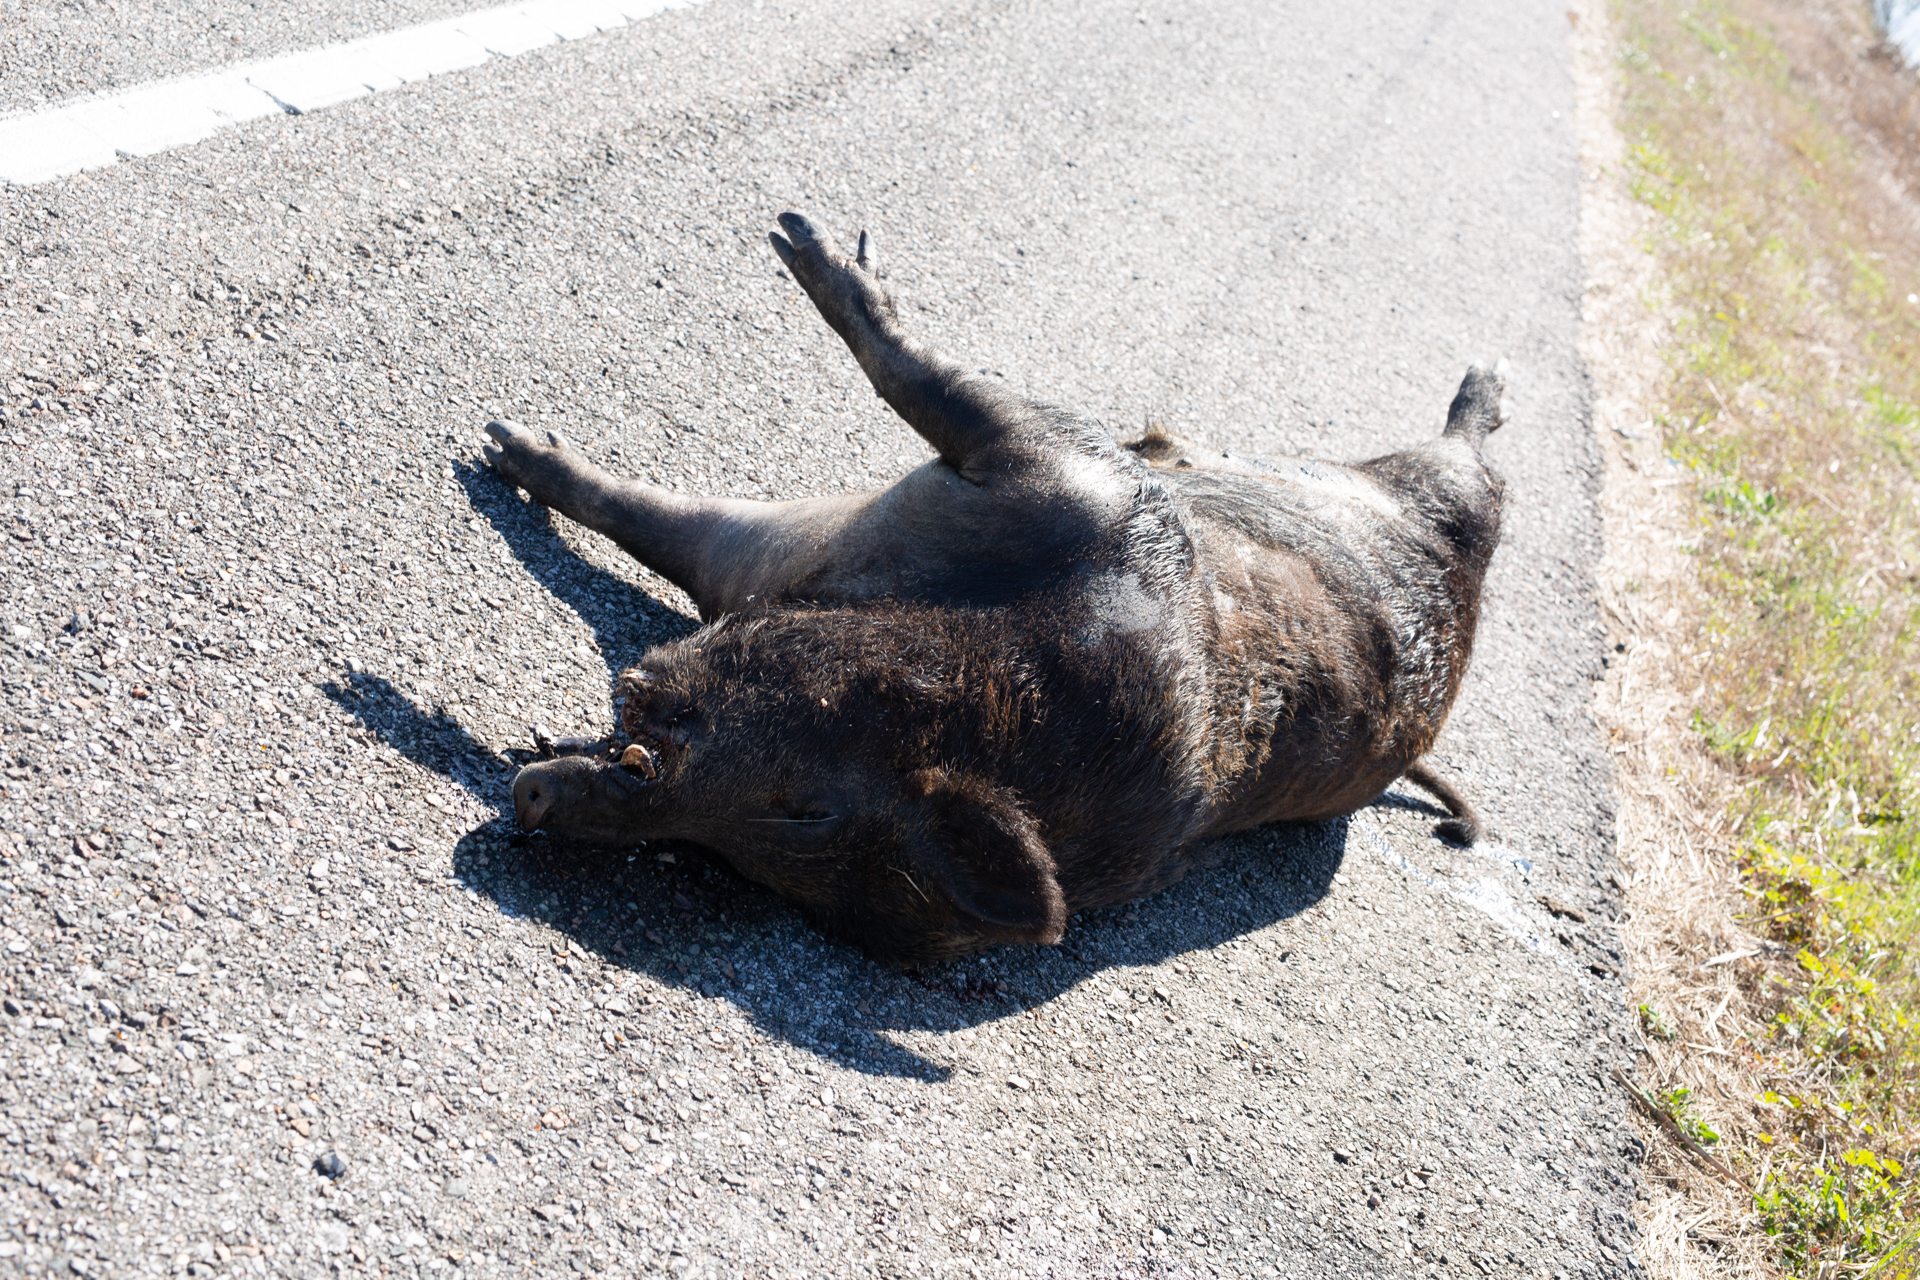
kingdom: Animalia
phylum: Chordata
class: Mammalia
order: Artiodactyla
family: Suidae
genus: Sus
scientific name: Sus scrofa
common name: Wild boar
